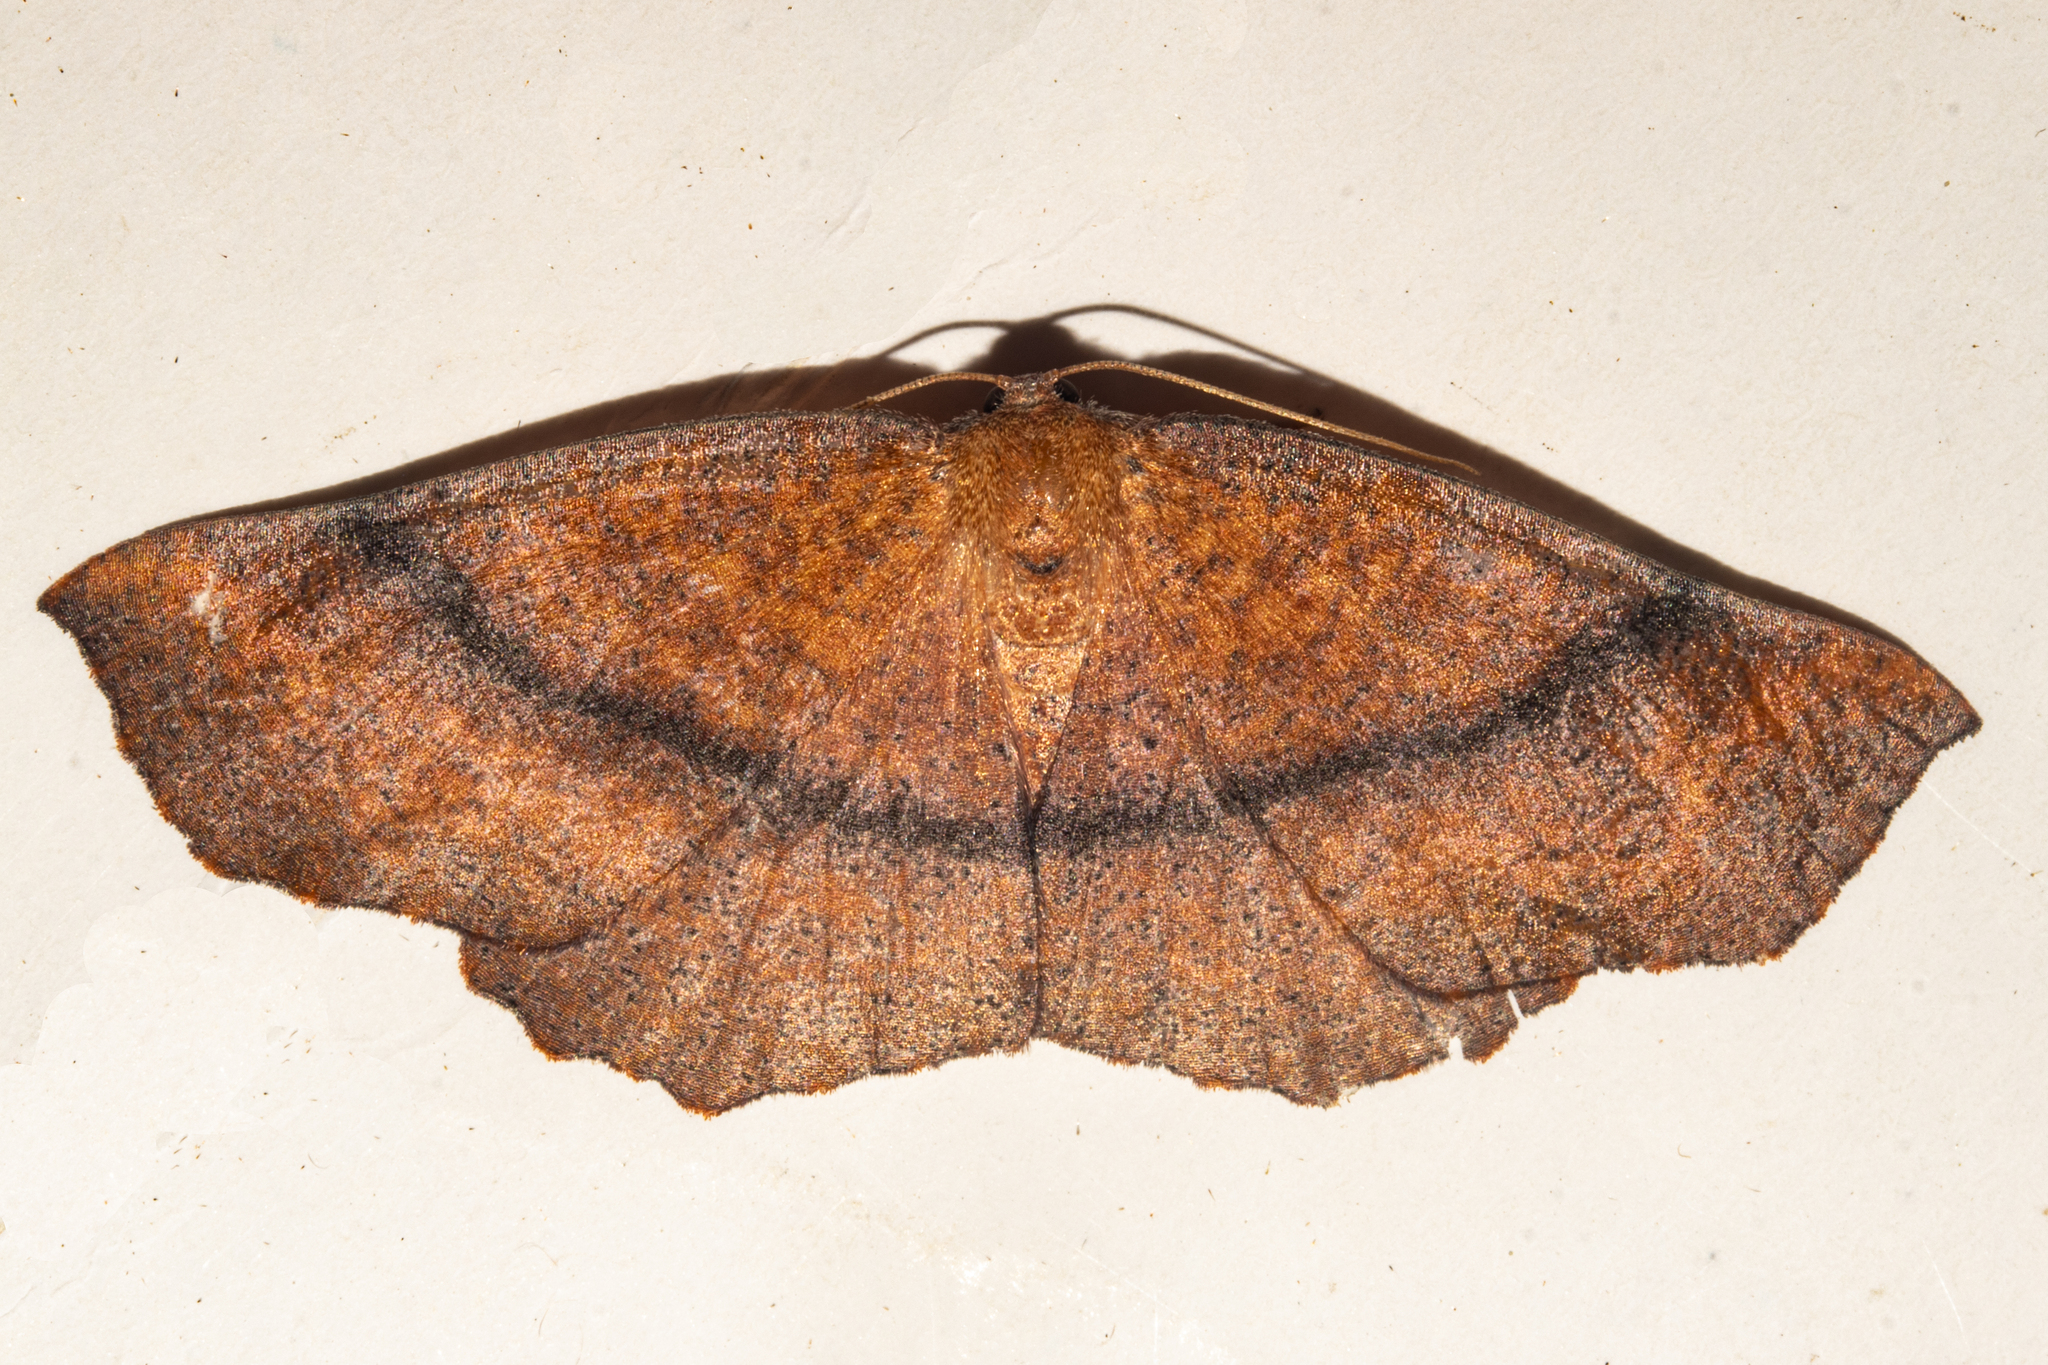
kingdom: Animalia
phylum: Arthropoda
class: Insecta
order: Lepidoptera
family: Geometridae
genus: Xyridacma
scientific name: Xyridacma ustaria
